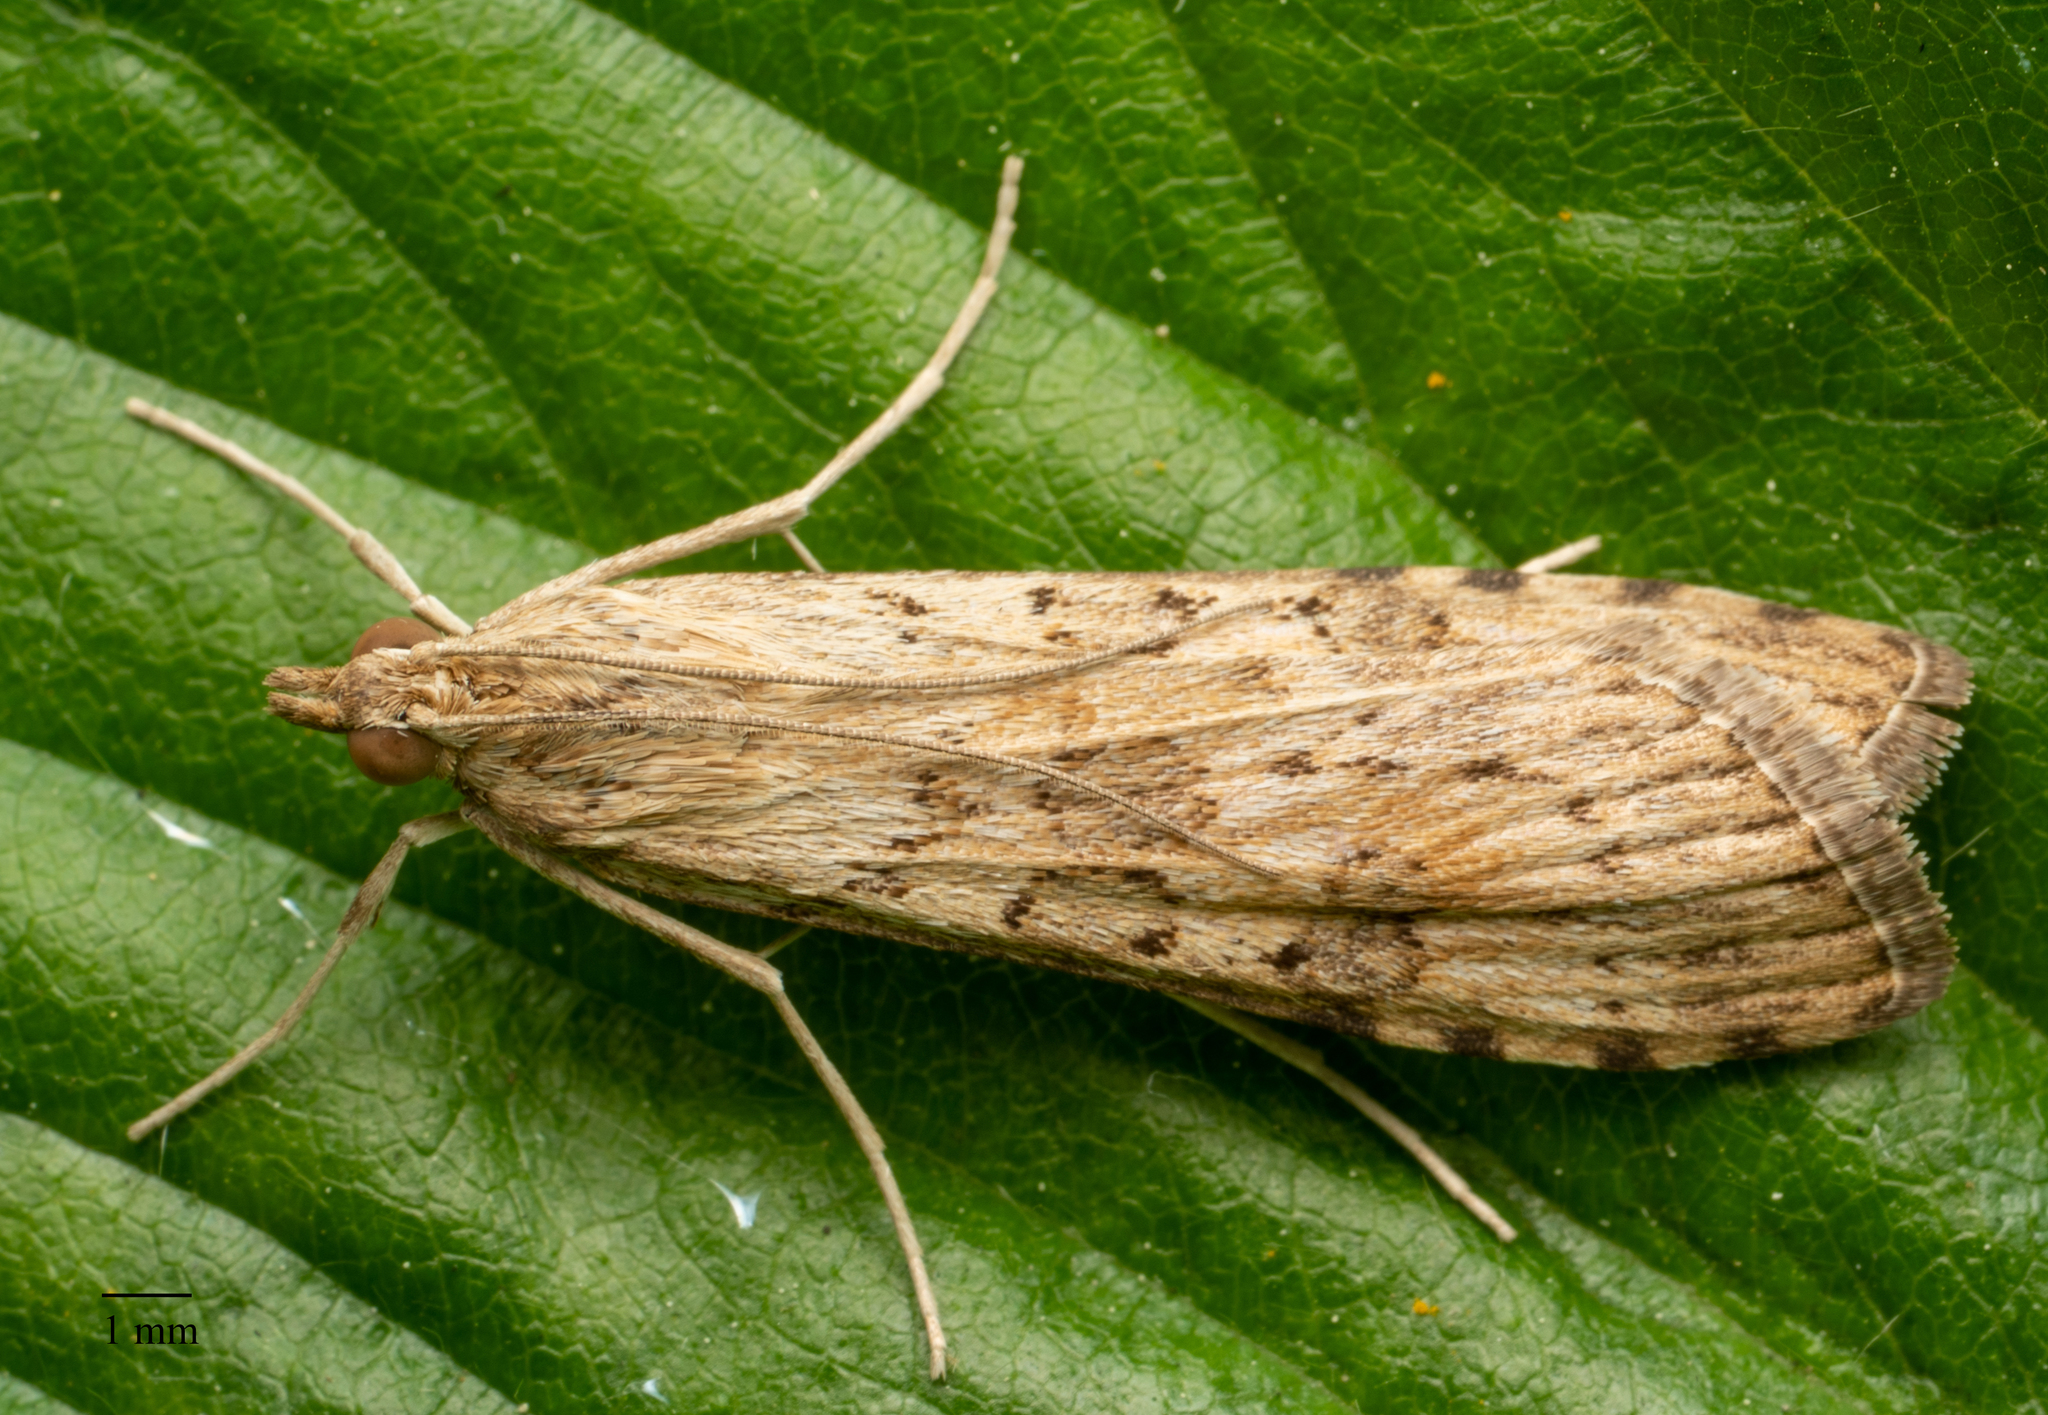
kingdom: Animalia
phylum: Arthropoda
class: Insecta
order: Lepidoptera
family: Crambidae
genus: Nomophila
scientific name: Nomophila nearctica
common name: American rush veneer
